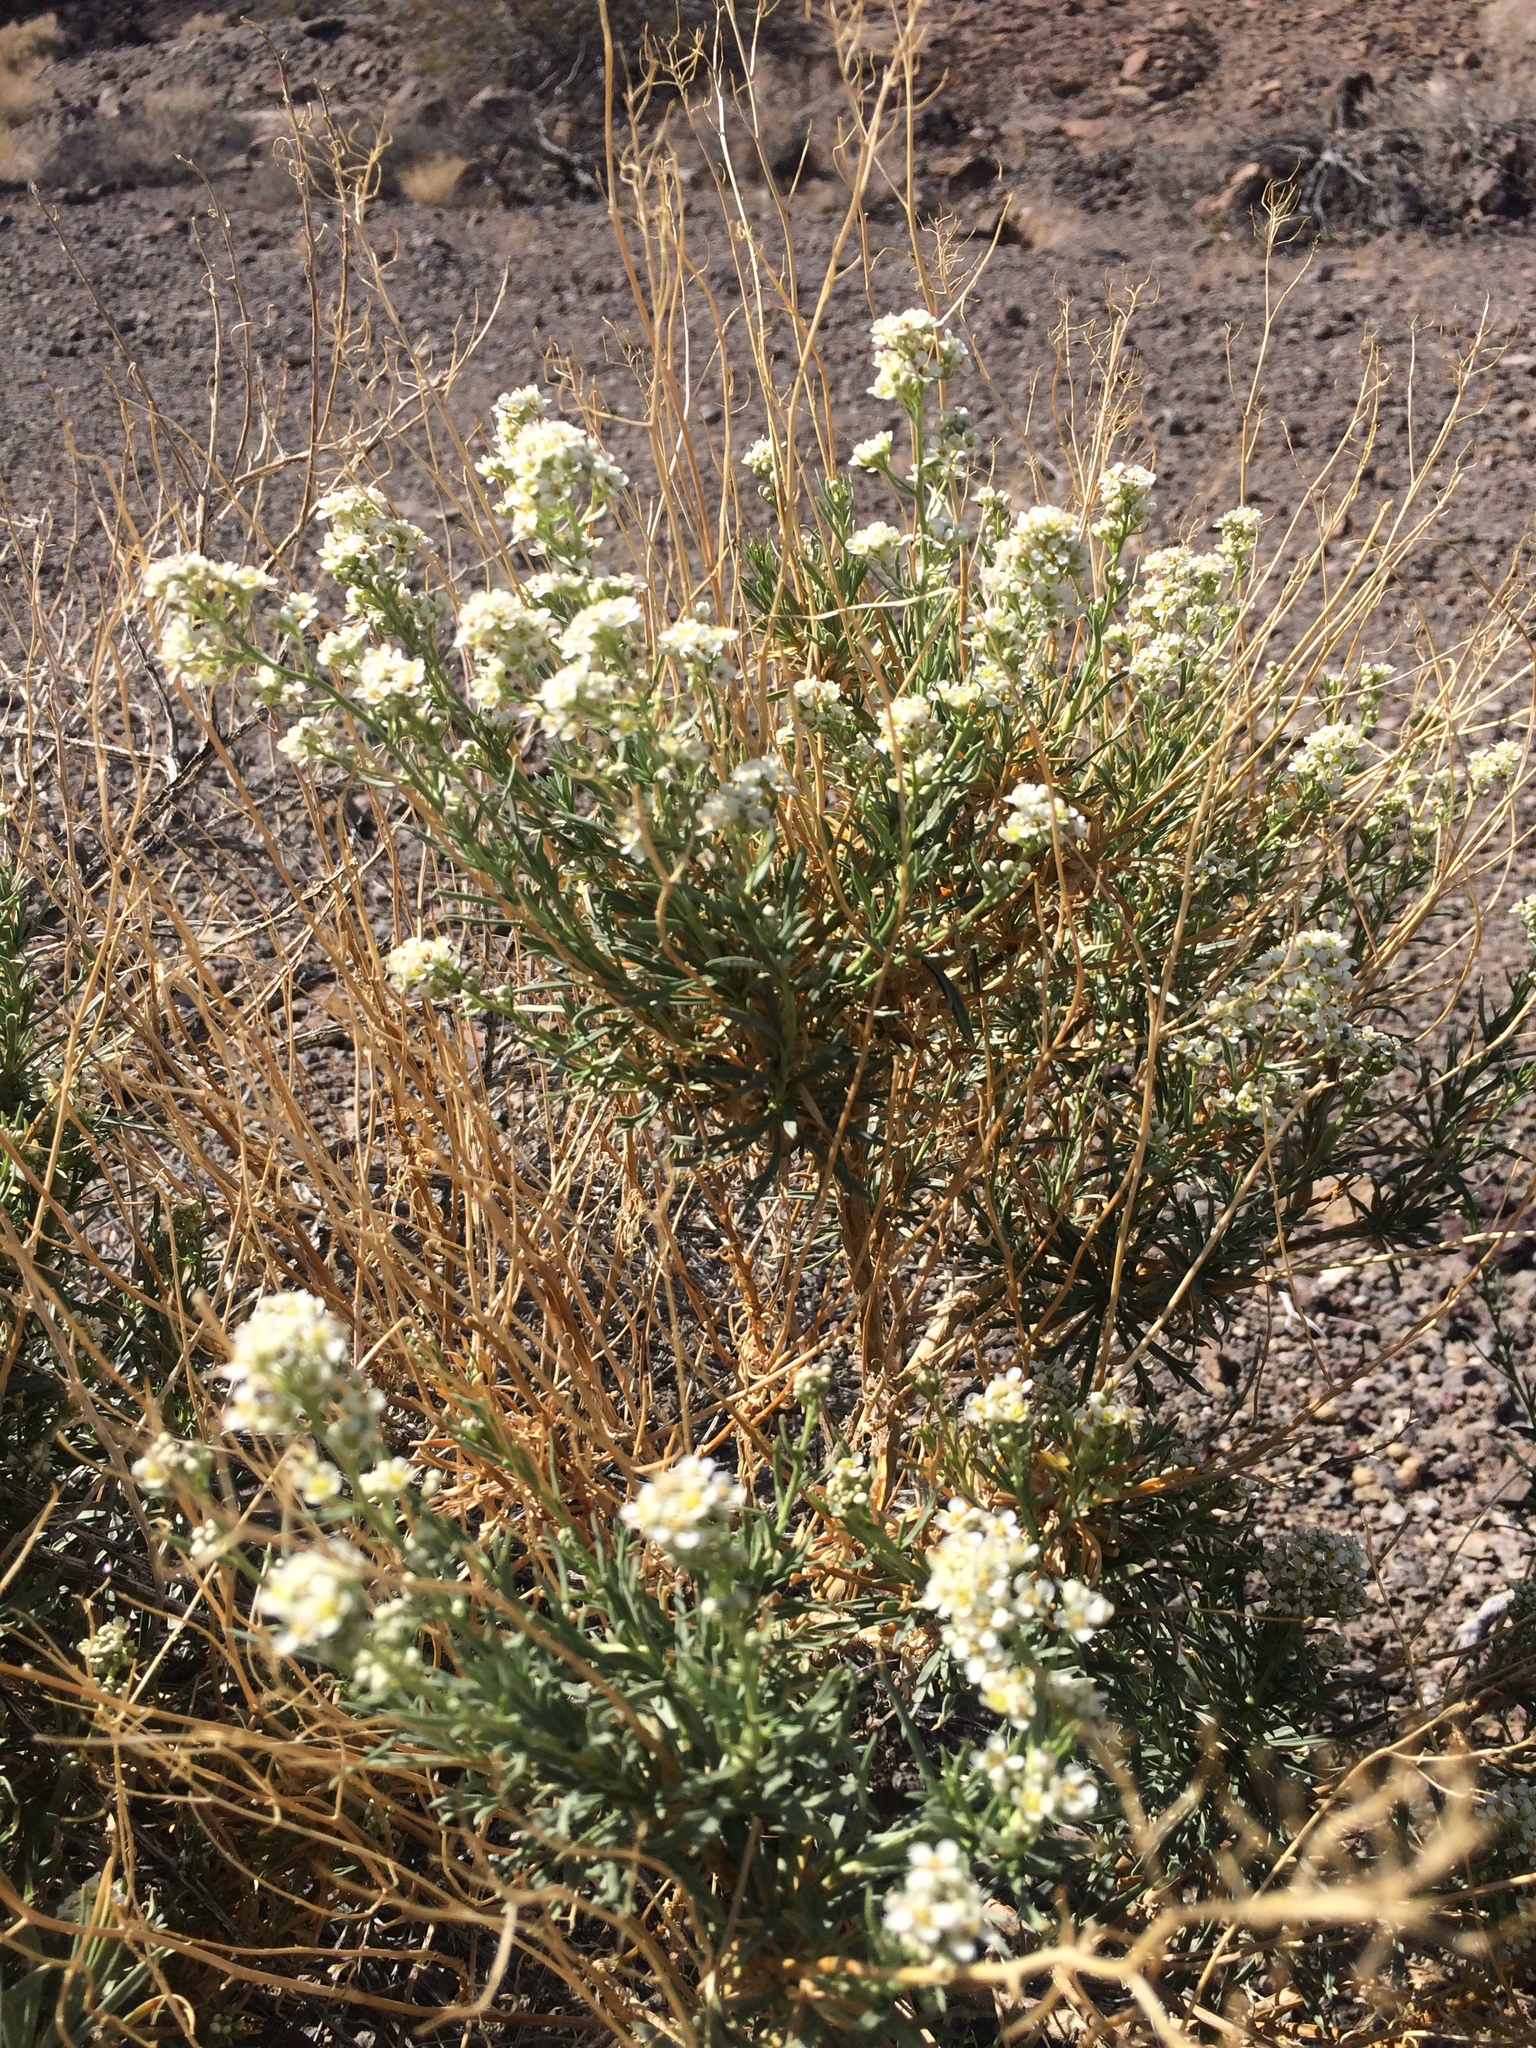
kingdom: Plantae
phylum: Tracheophyta
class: Magnoliopsida
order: Brassicales
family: Brassicaceae
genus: Lepidium
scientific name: Lepidium fremontii
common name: Fremont's pepperwort
